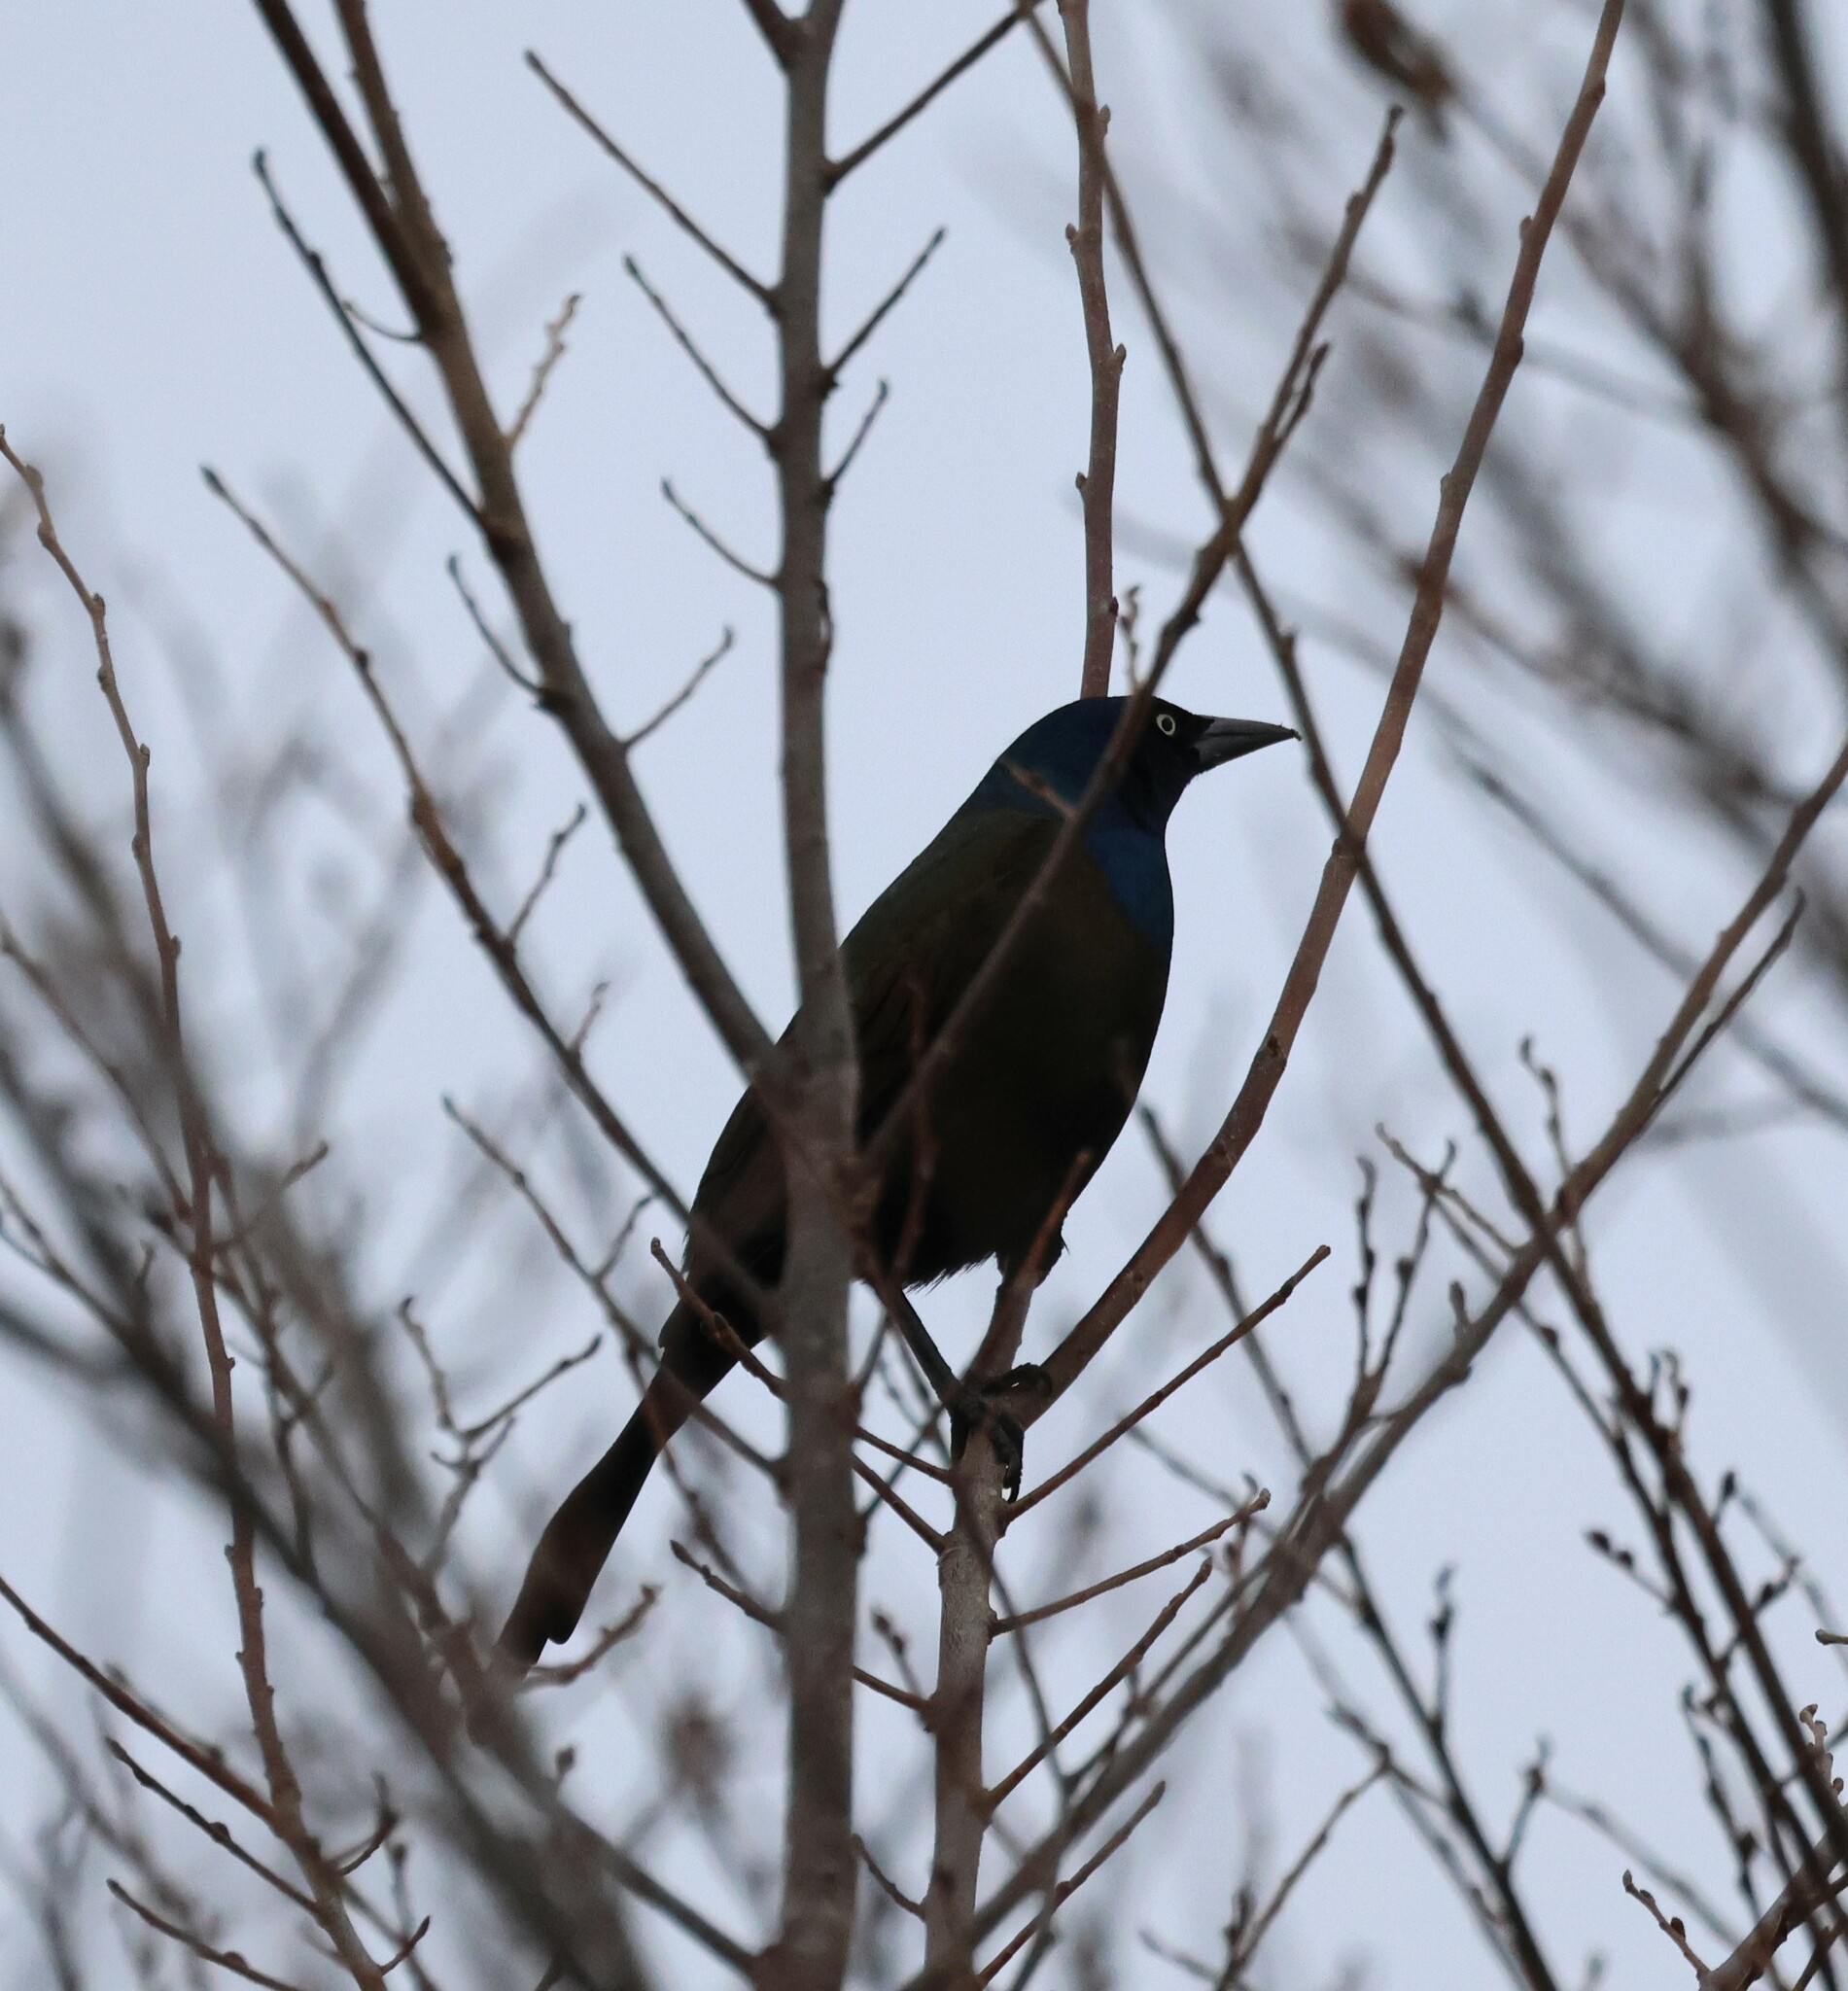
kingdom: Animalia
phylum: Chordata
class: Aves
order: Passeriformes
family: Icteridae
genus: Quiscalus
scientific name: Quiscalus quiscula
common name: Common grackle
